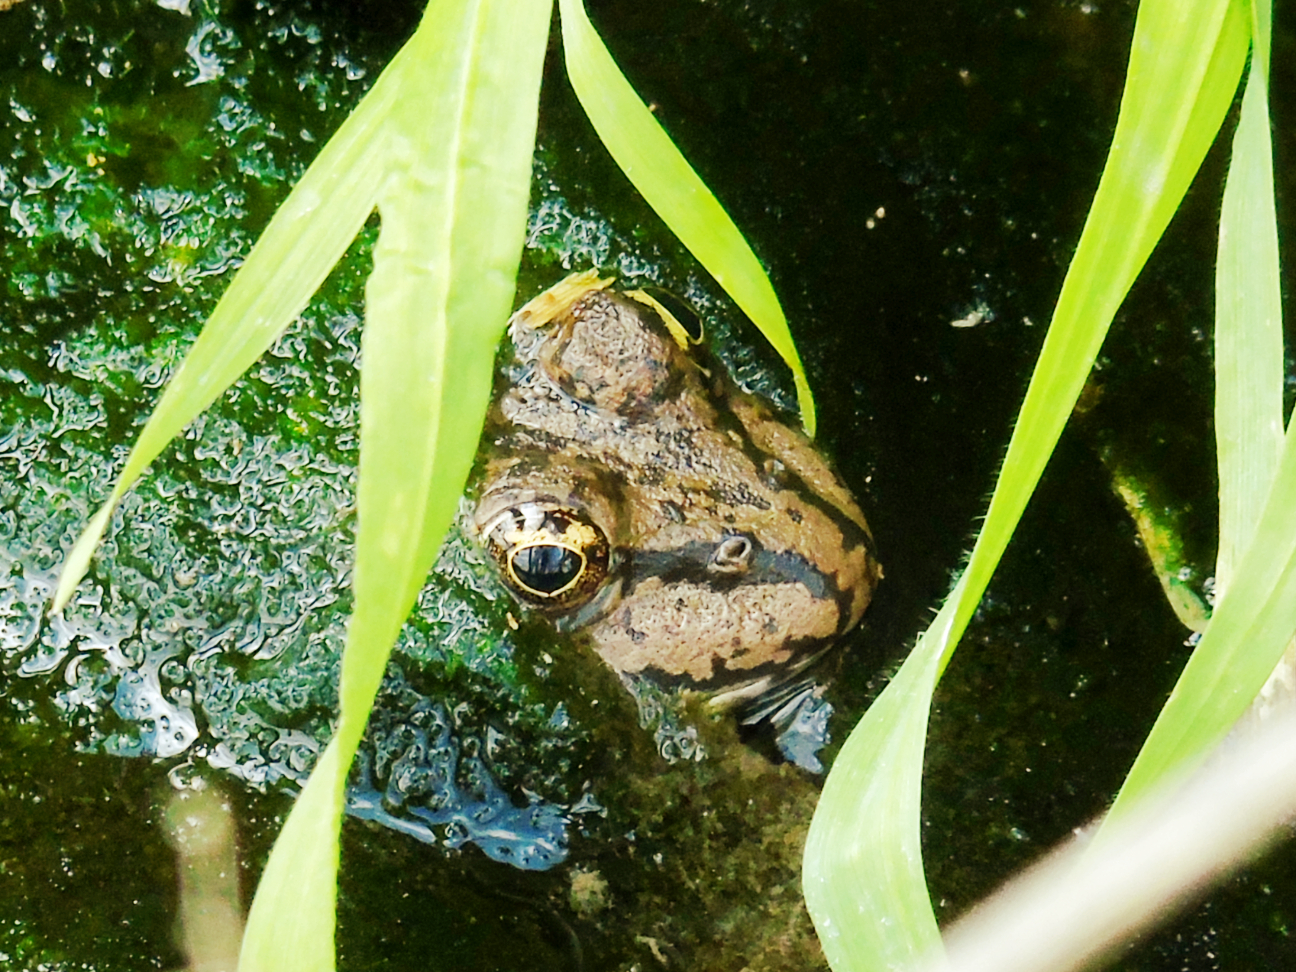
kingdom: Animalia
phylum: Chordata
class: Amphibia
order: Anura
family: Ranidae
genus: Pelophylax
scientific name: Pelophylax ridibundus
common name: Marsh frog
